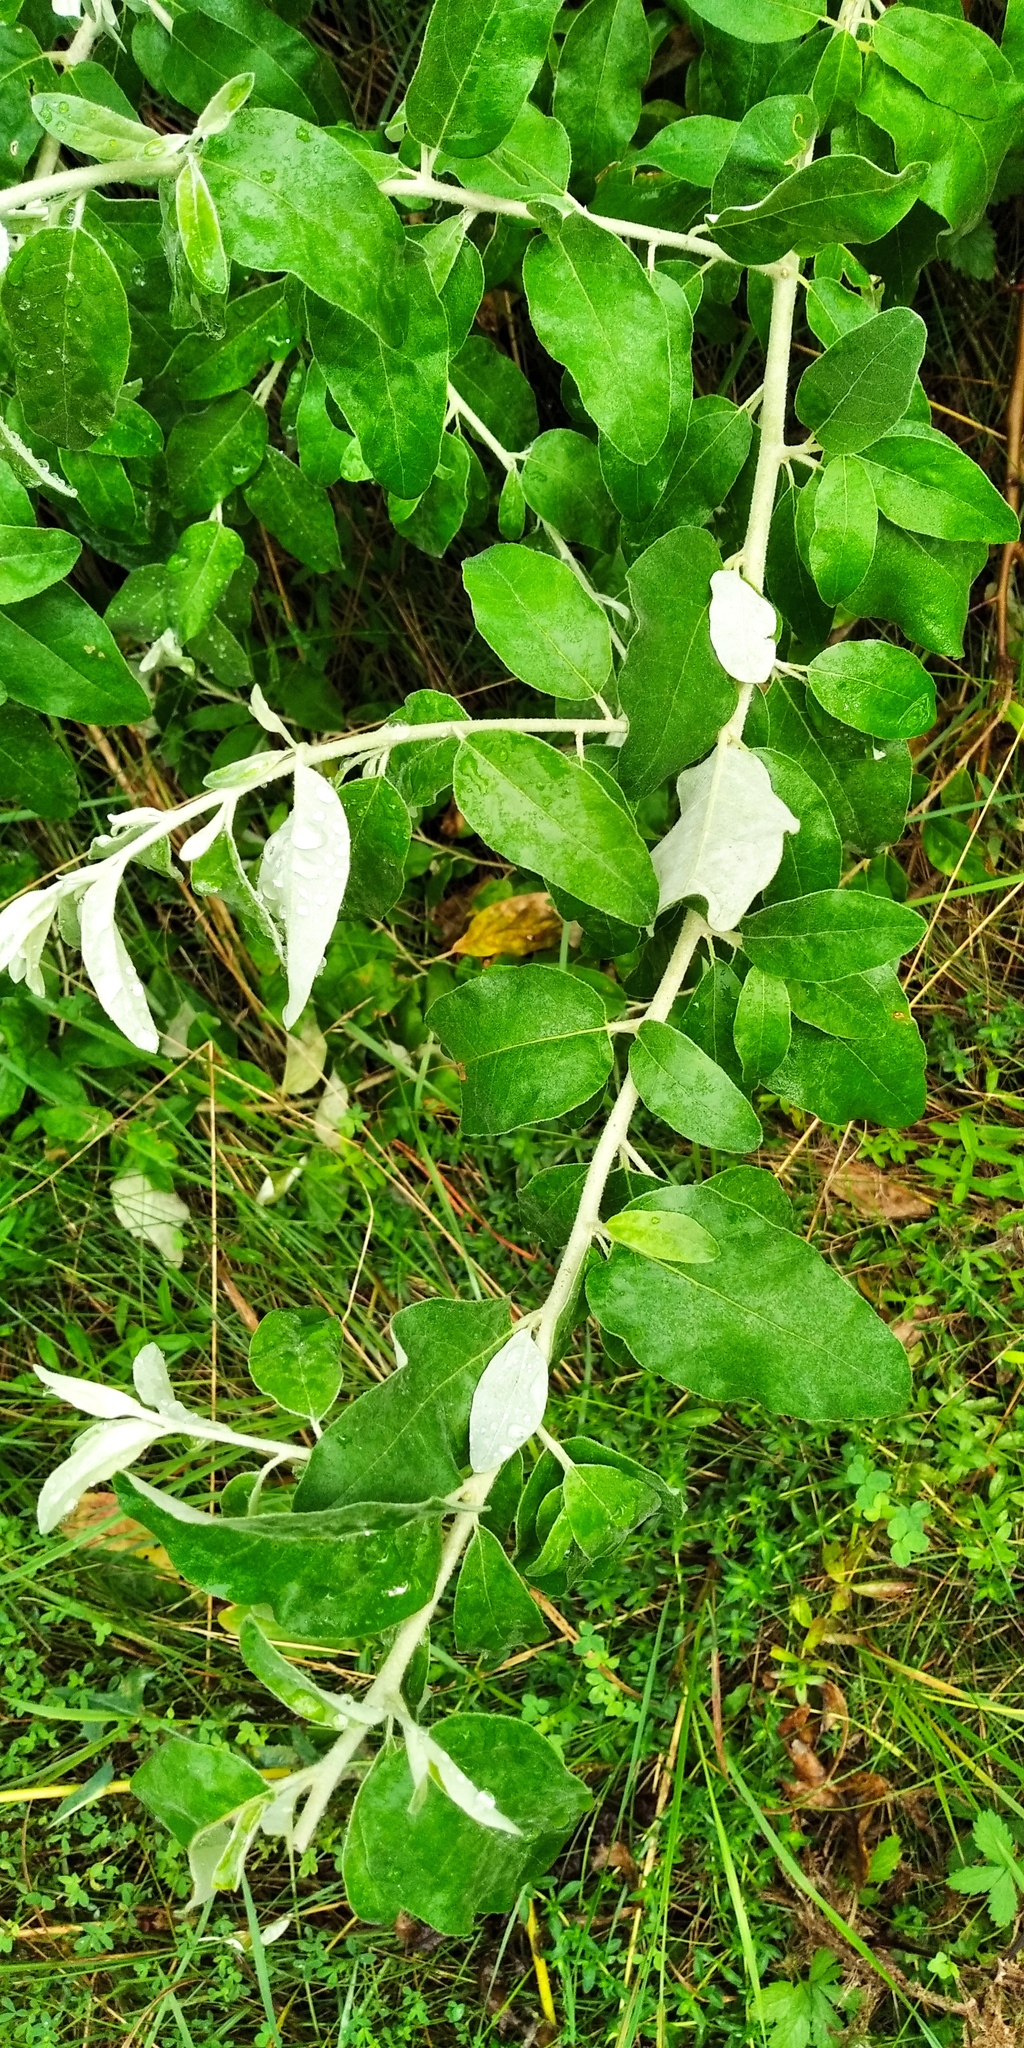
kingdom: Plantae
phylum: Tracheophyta
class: Magnoliopsida
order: Rosales
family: Elaeagnaceae
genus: Elaeagnus
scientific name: Elaeagnus angustifolia
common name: Russian olive
